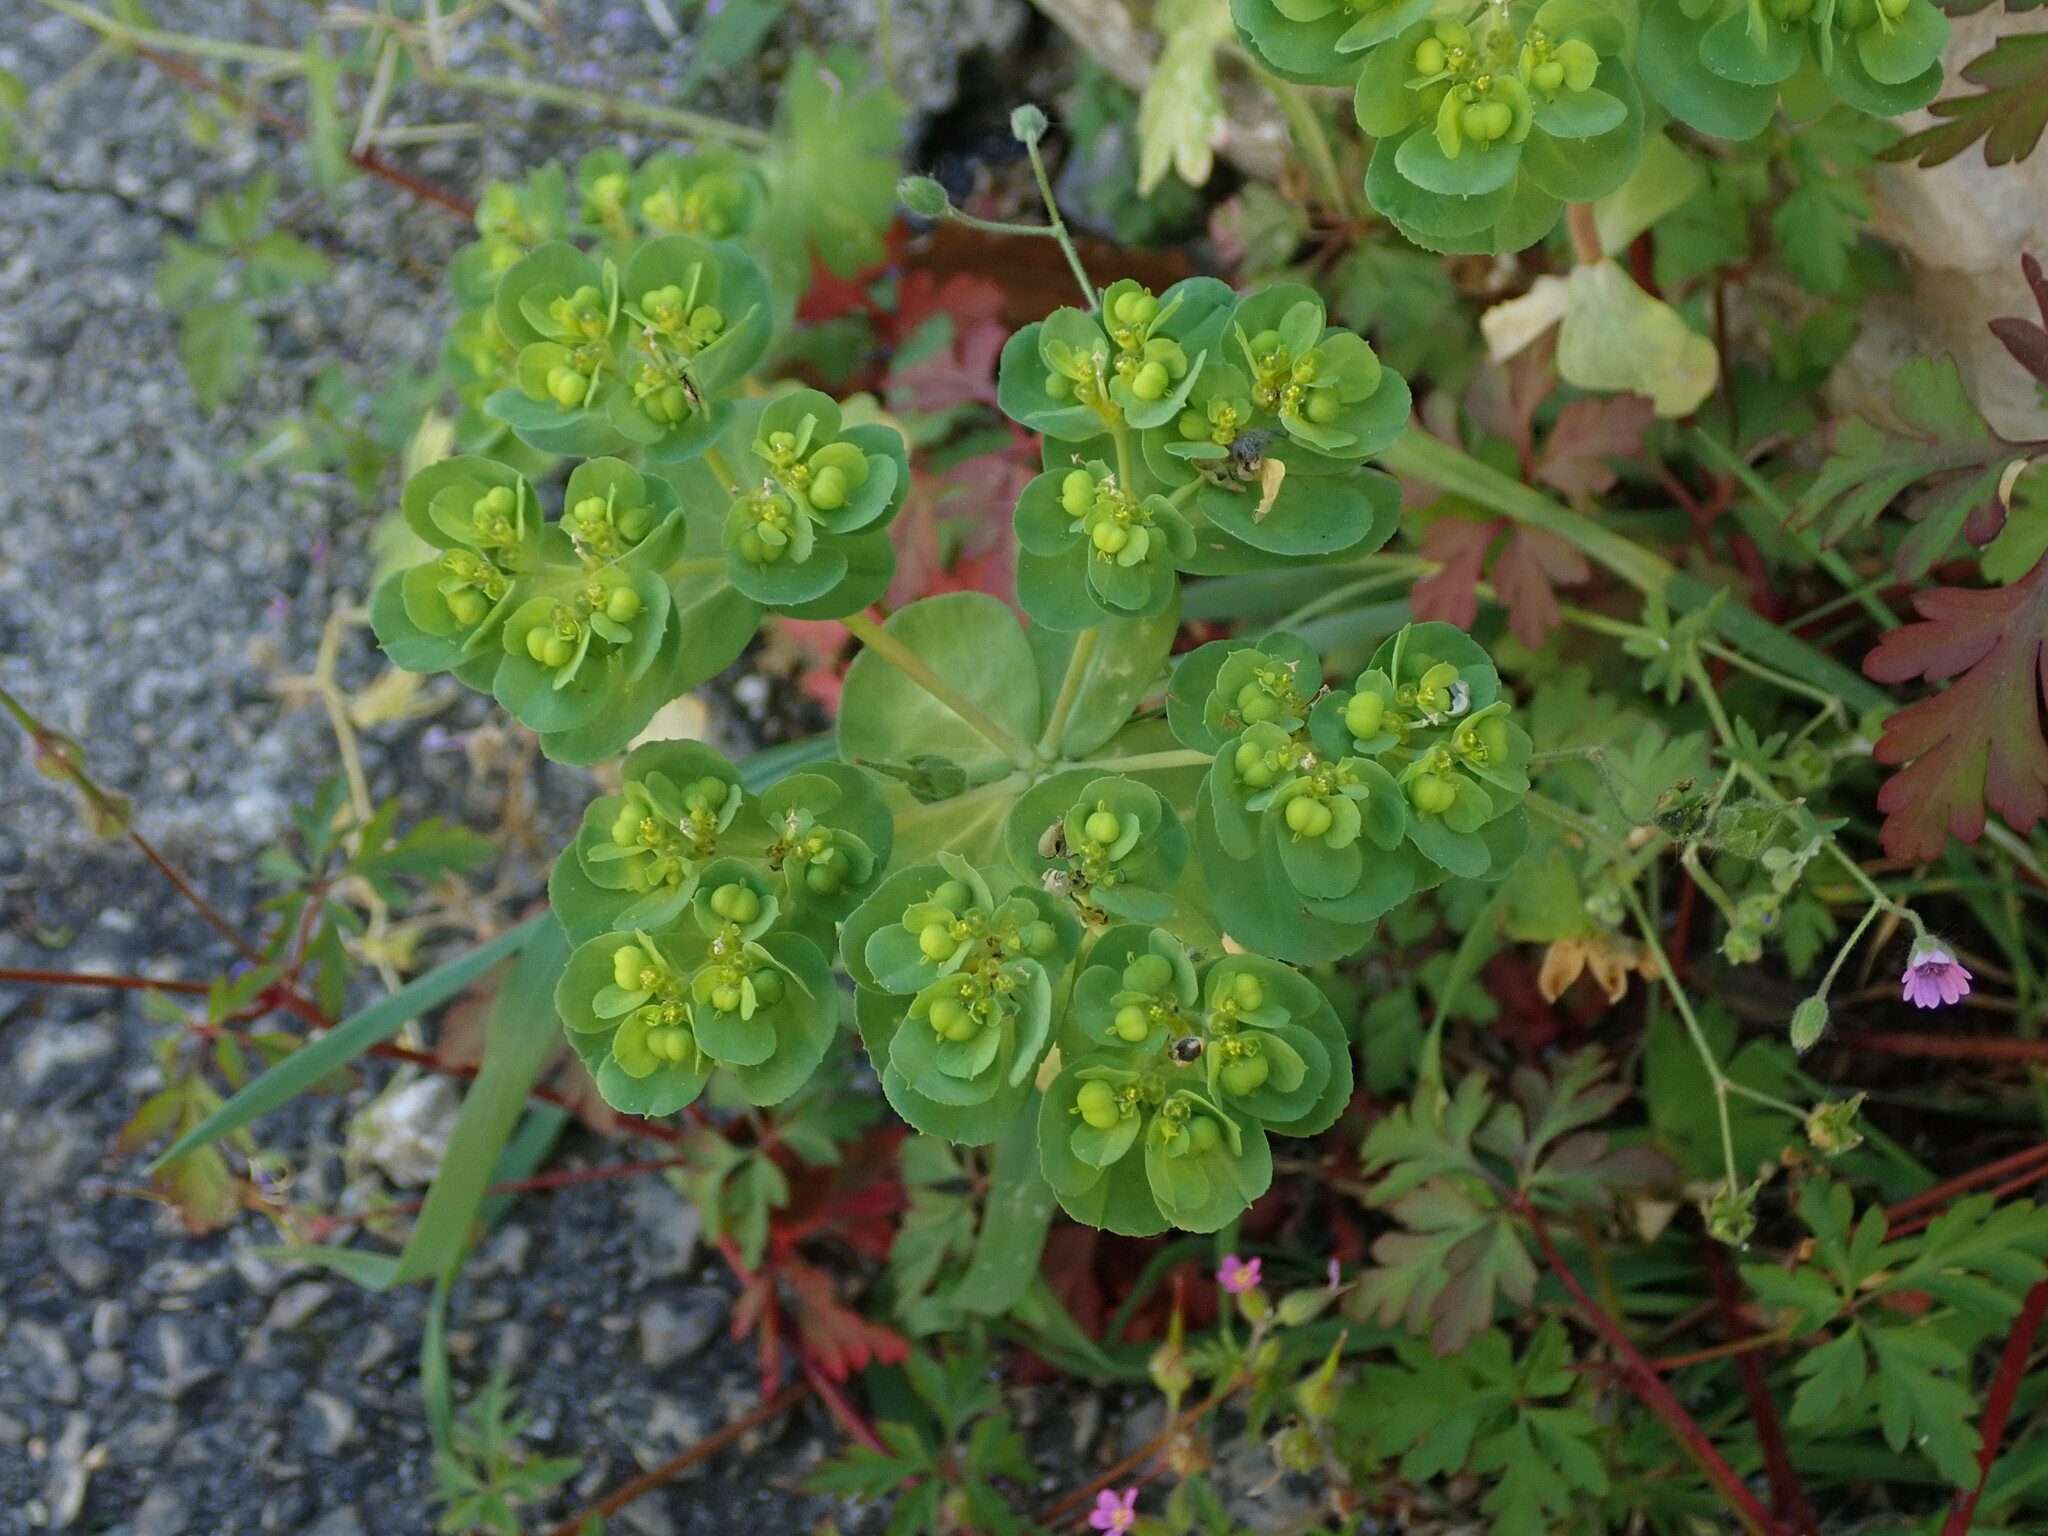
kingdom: Plantae
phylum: Tracheophyta
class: Magnoliopsida
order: Malpighiales
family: Euphorbiaceae
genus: Euphorbia
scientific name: Euphorbia helioscopia
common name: Sun spurge
